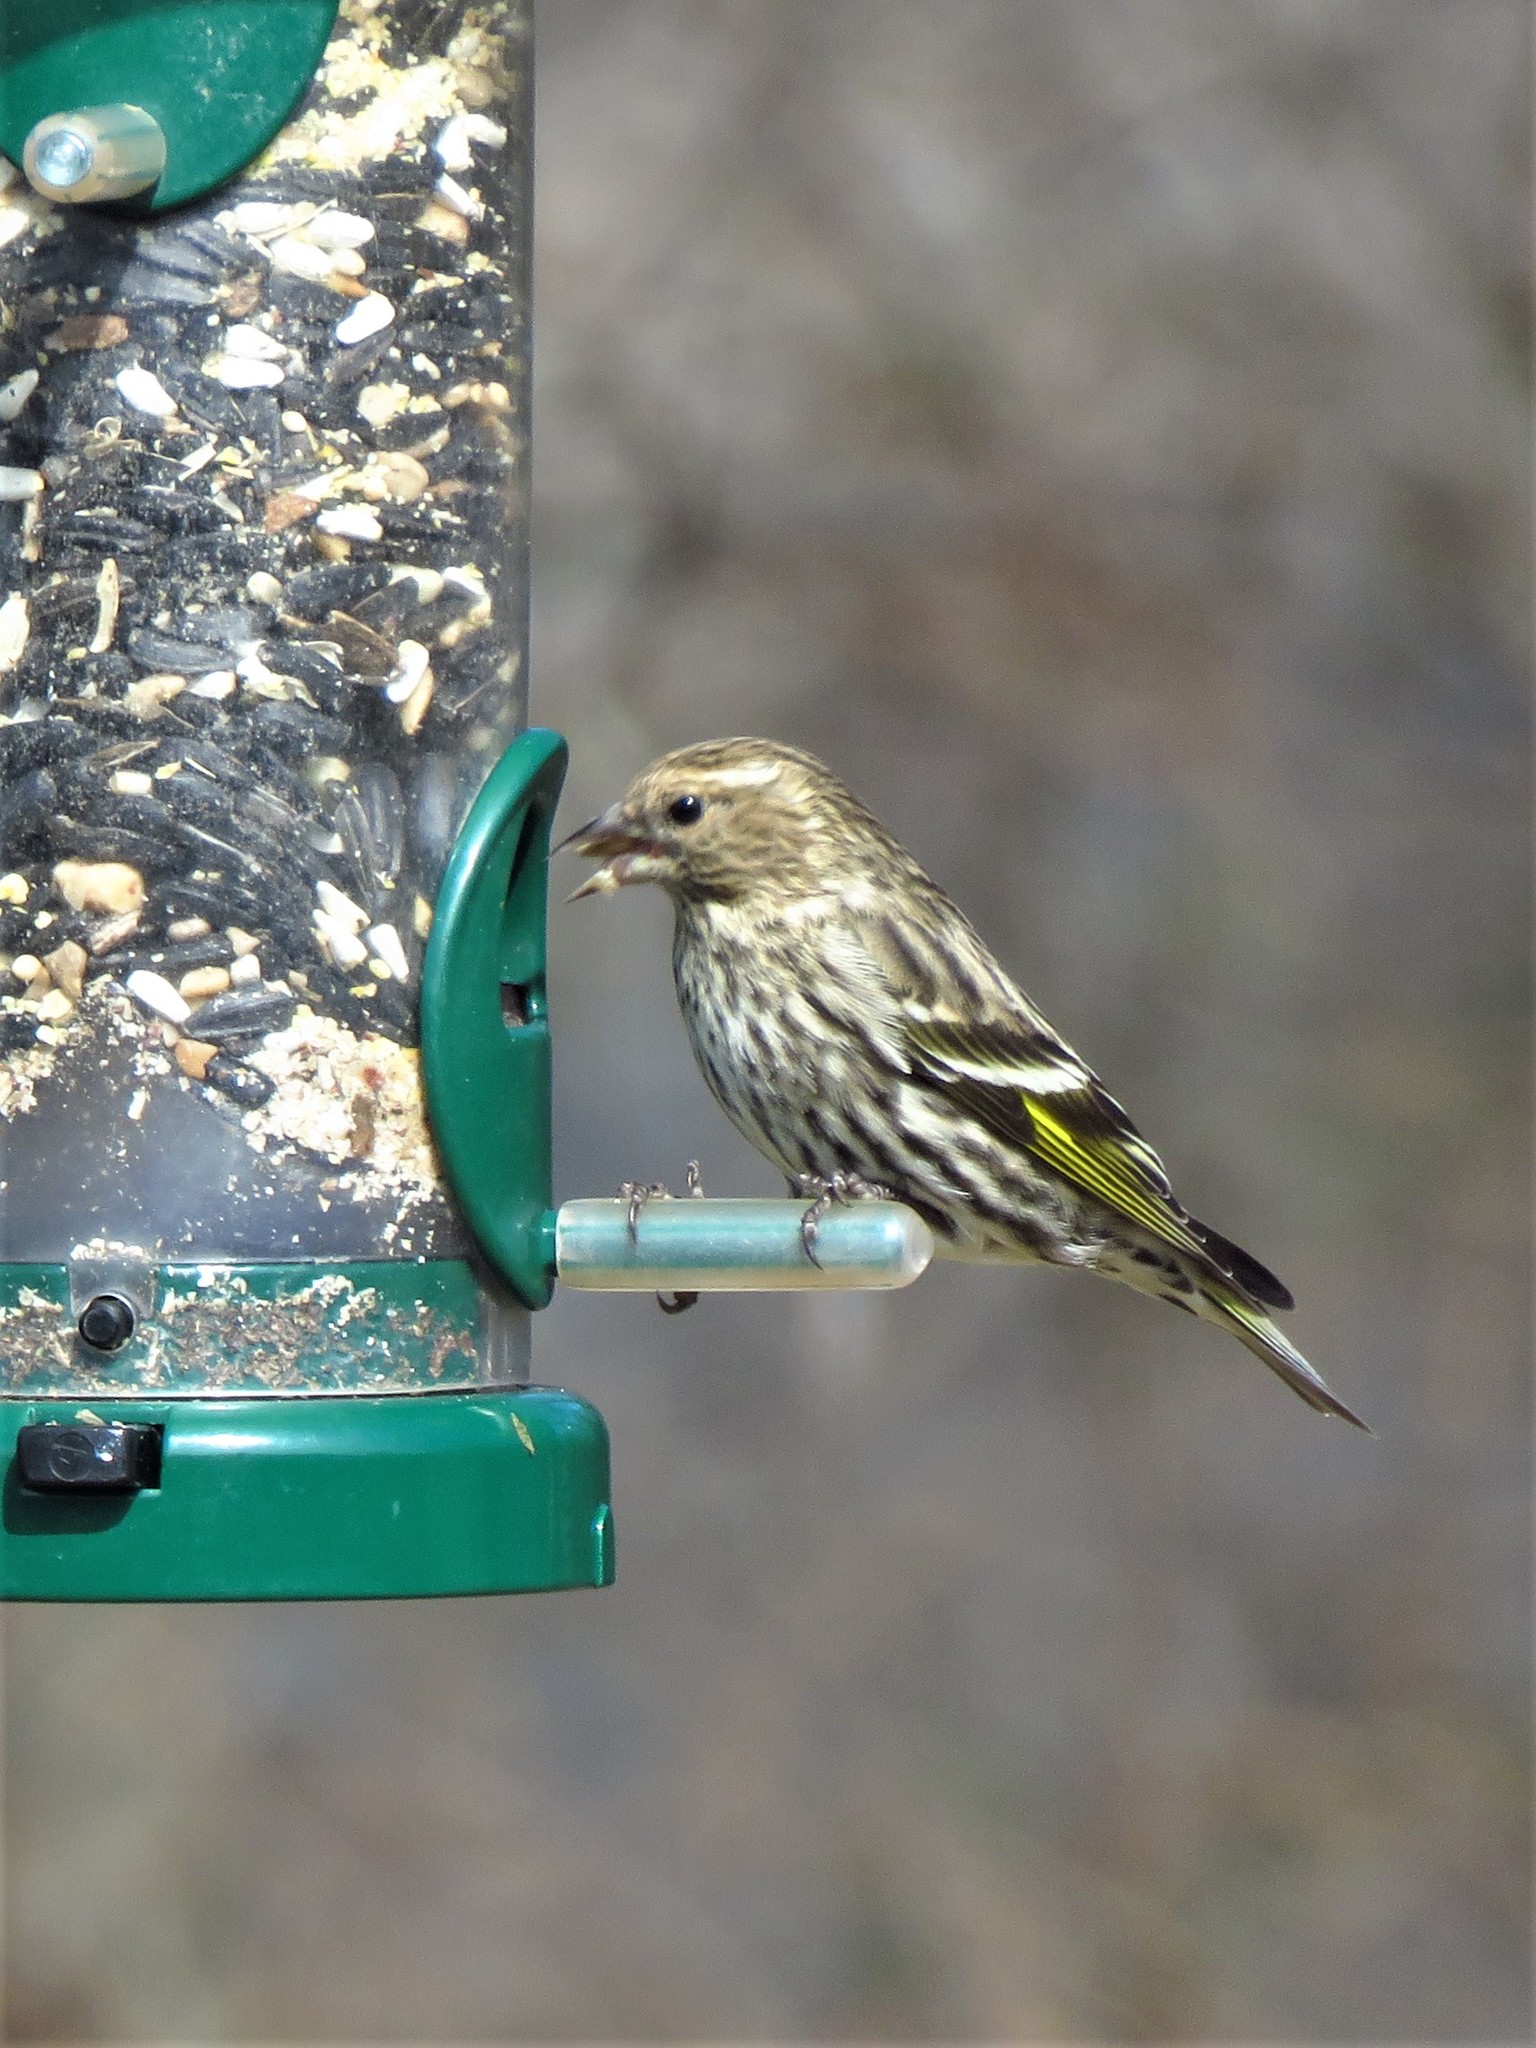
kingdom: Animalia
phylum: Chordata
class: Aves
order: Passeriformes
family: Fringillidae
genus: Spinus
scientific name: Spinus pinus
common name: Pine siskin
